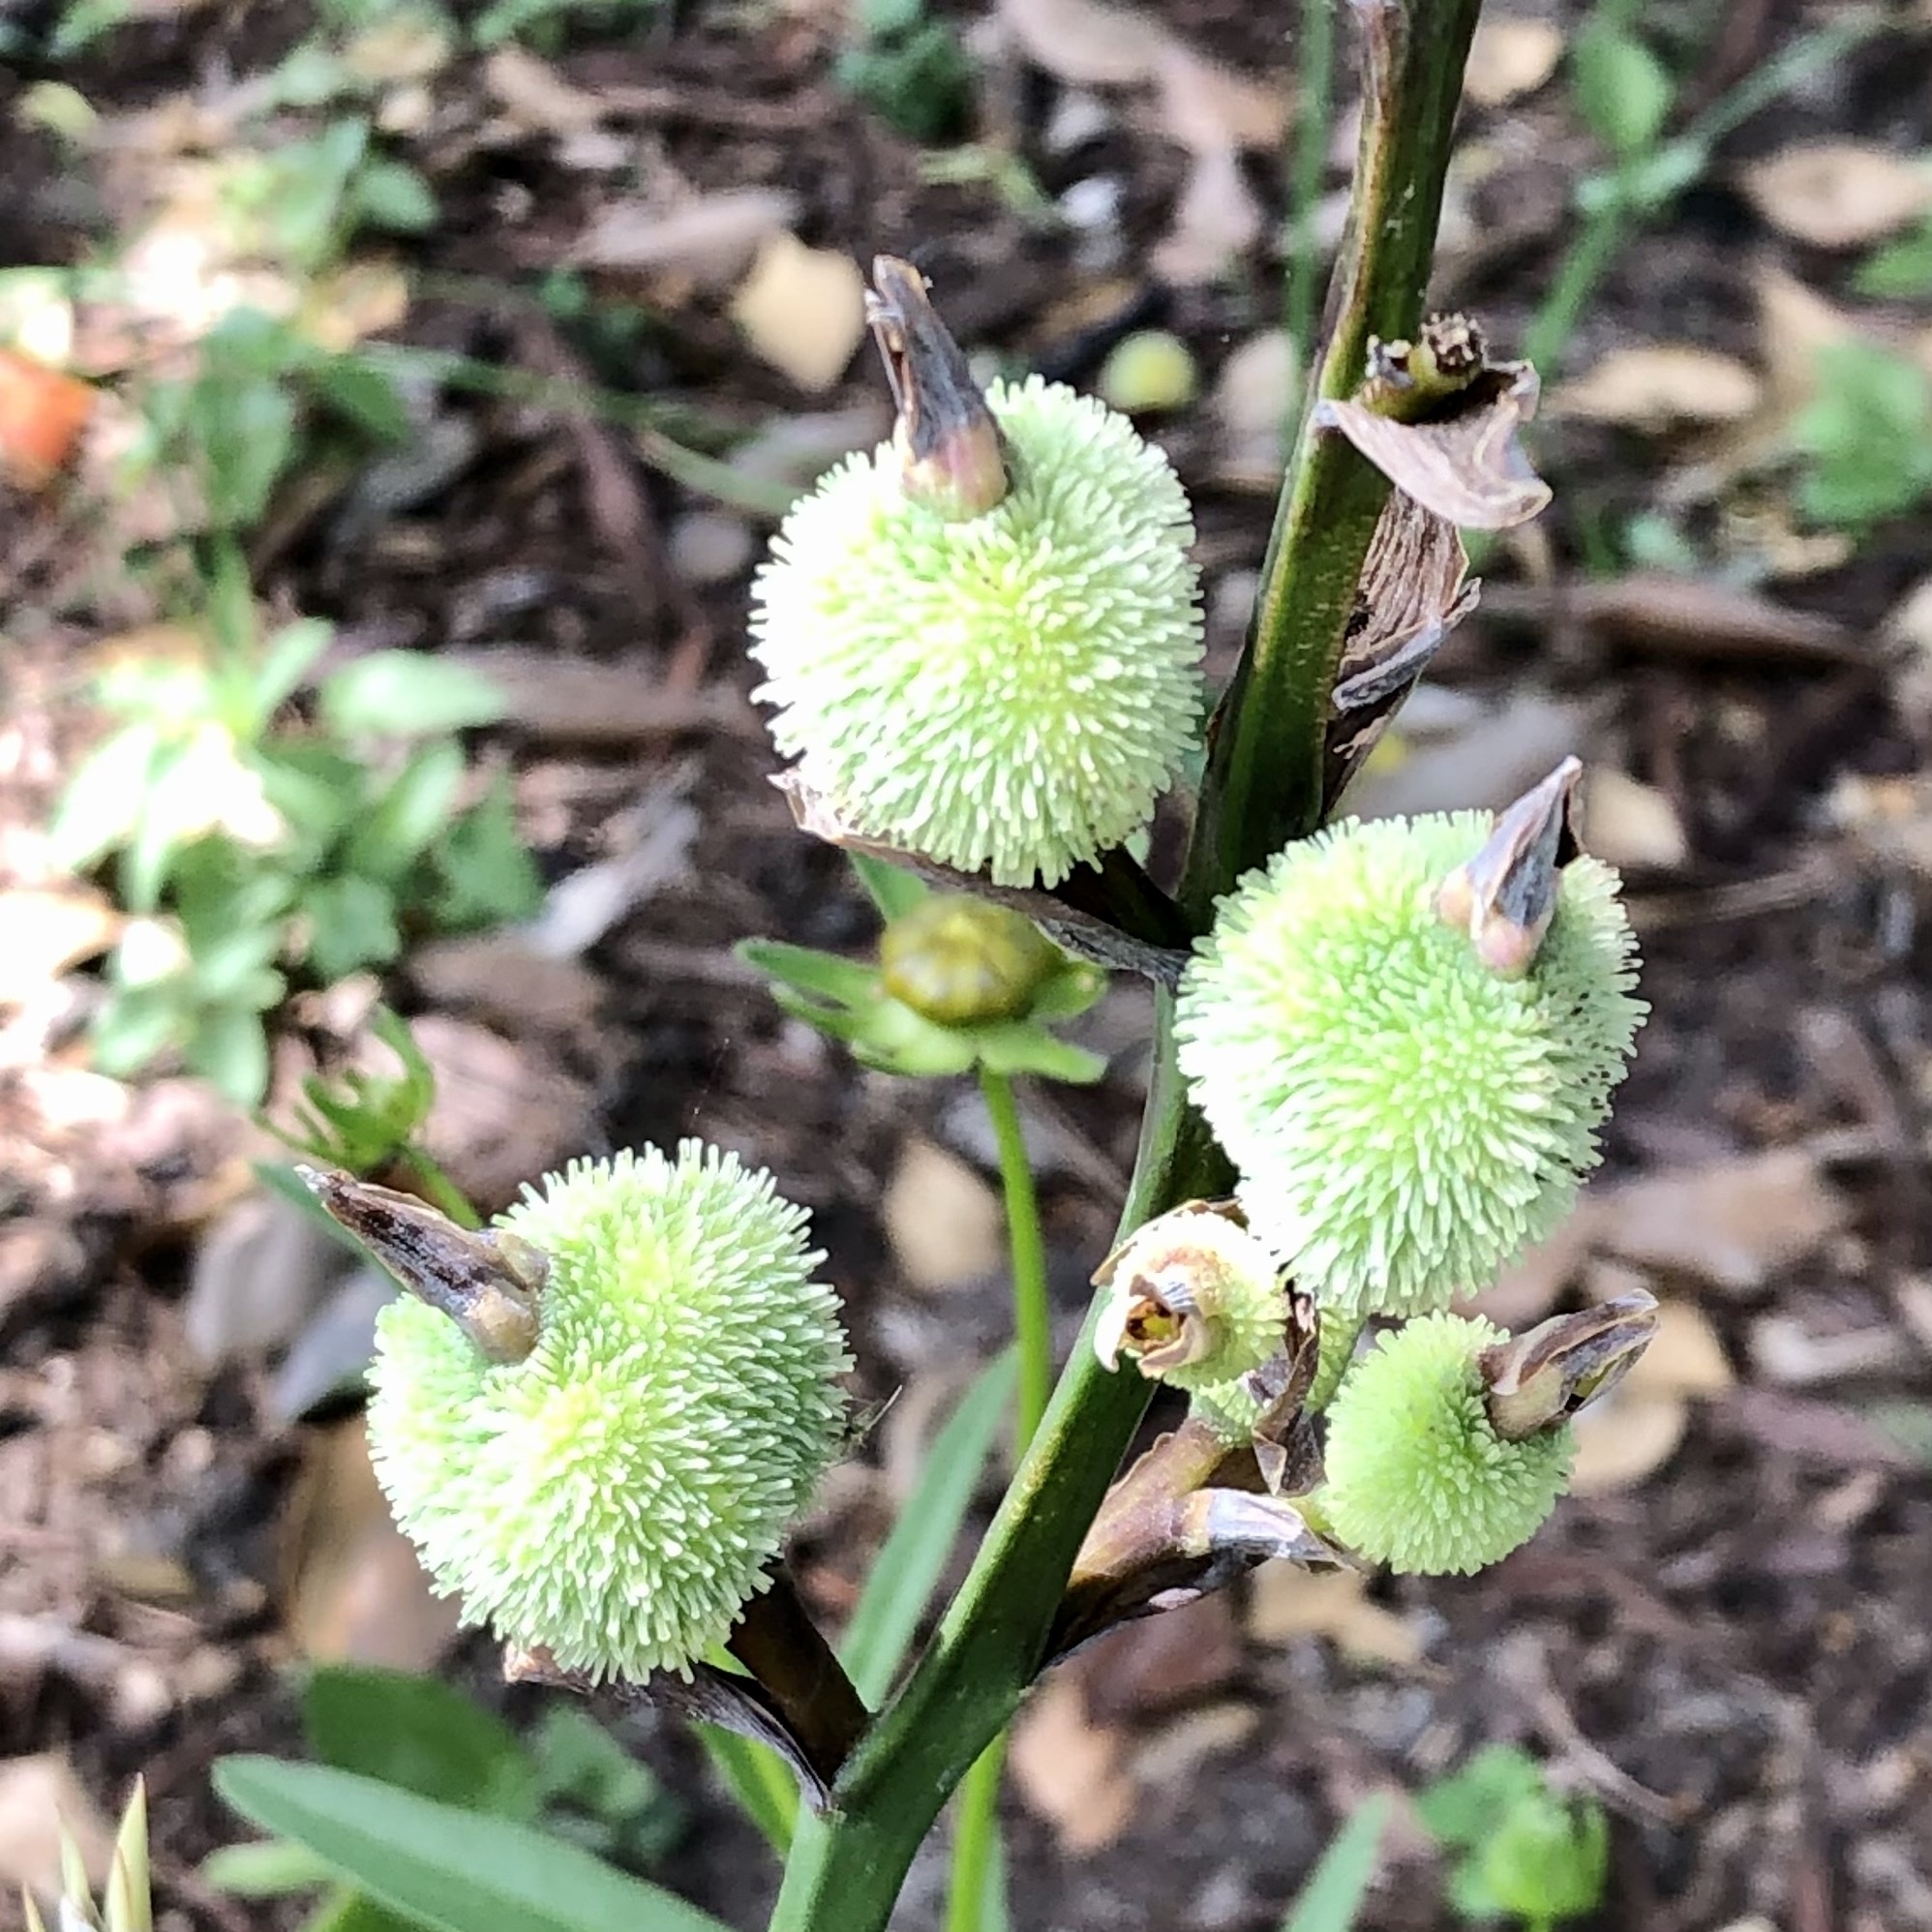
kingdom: Plantae
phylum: Tracheophyta
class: Liliopsida
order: Zingiberales
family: Cannaceae
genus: Canna
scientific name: Canna indica
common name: Indian shot
